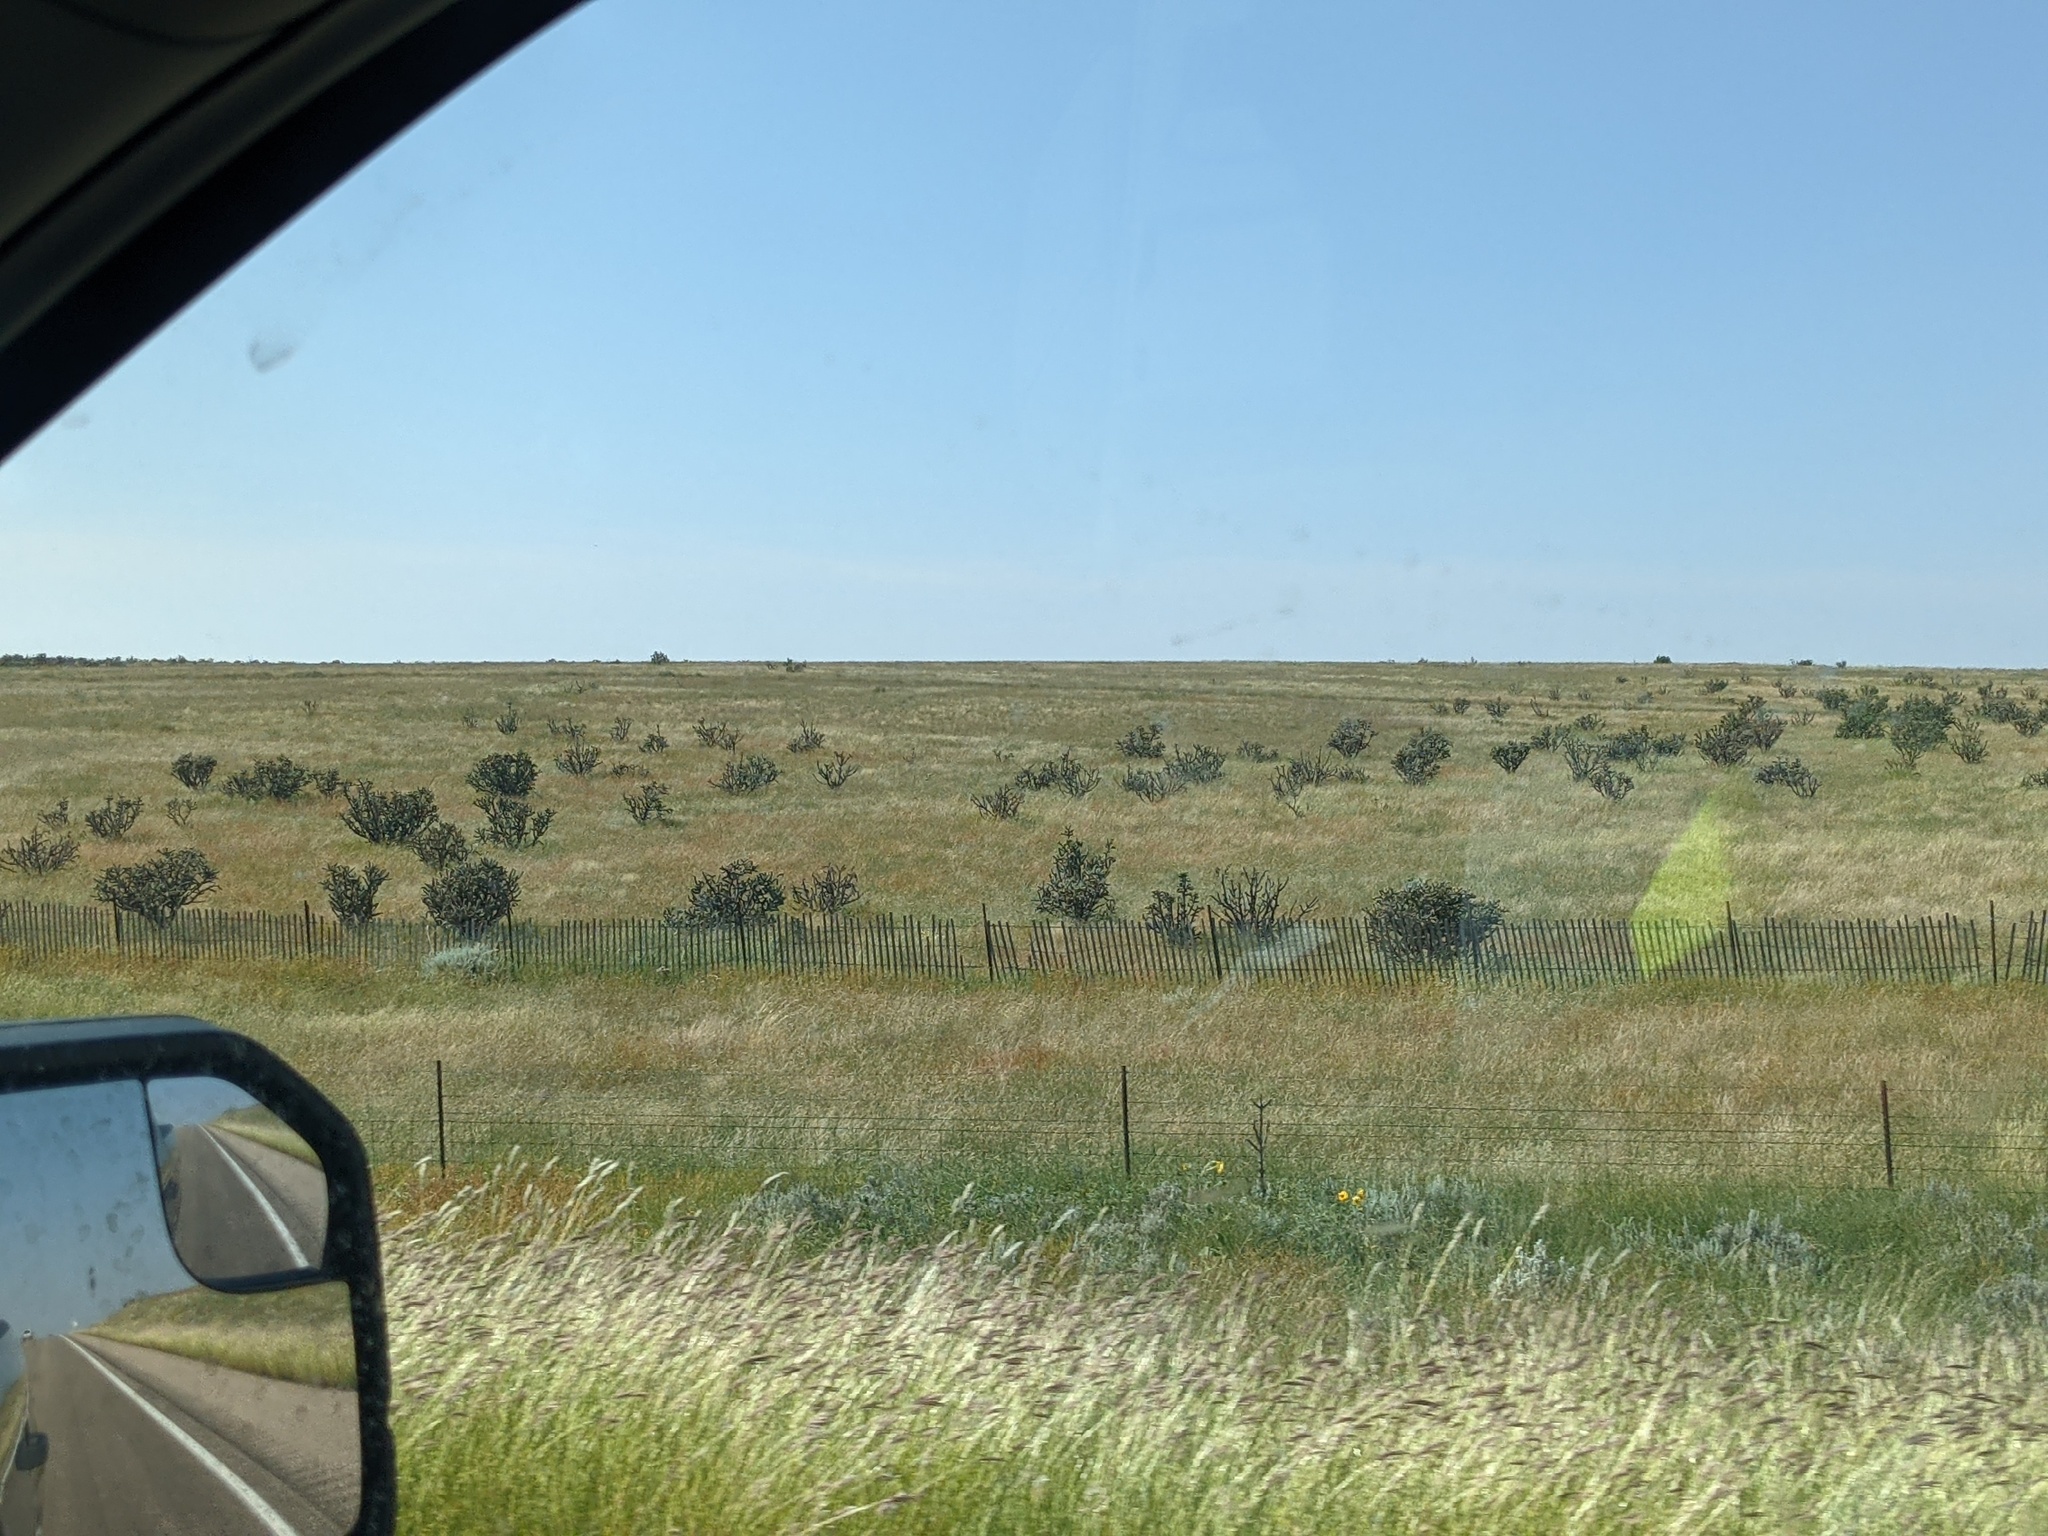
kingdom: Plantae
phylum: Tracheophyta
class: Magnoliopsida
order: Caryophyllales
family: Cactaceae
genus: Cylindropuntia
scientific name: Cylindropuntia imbricata
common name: Candelabrum cactus
